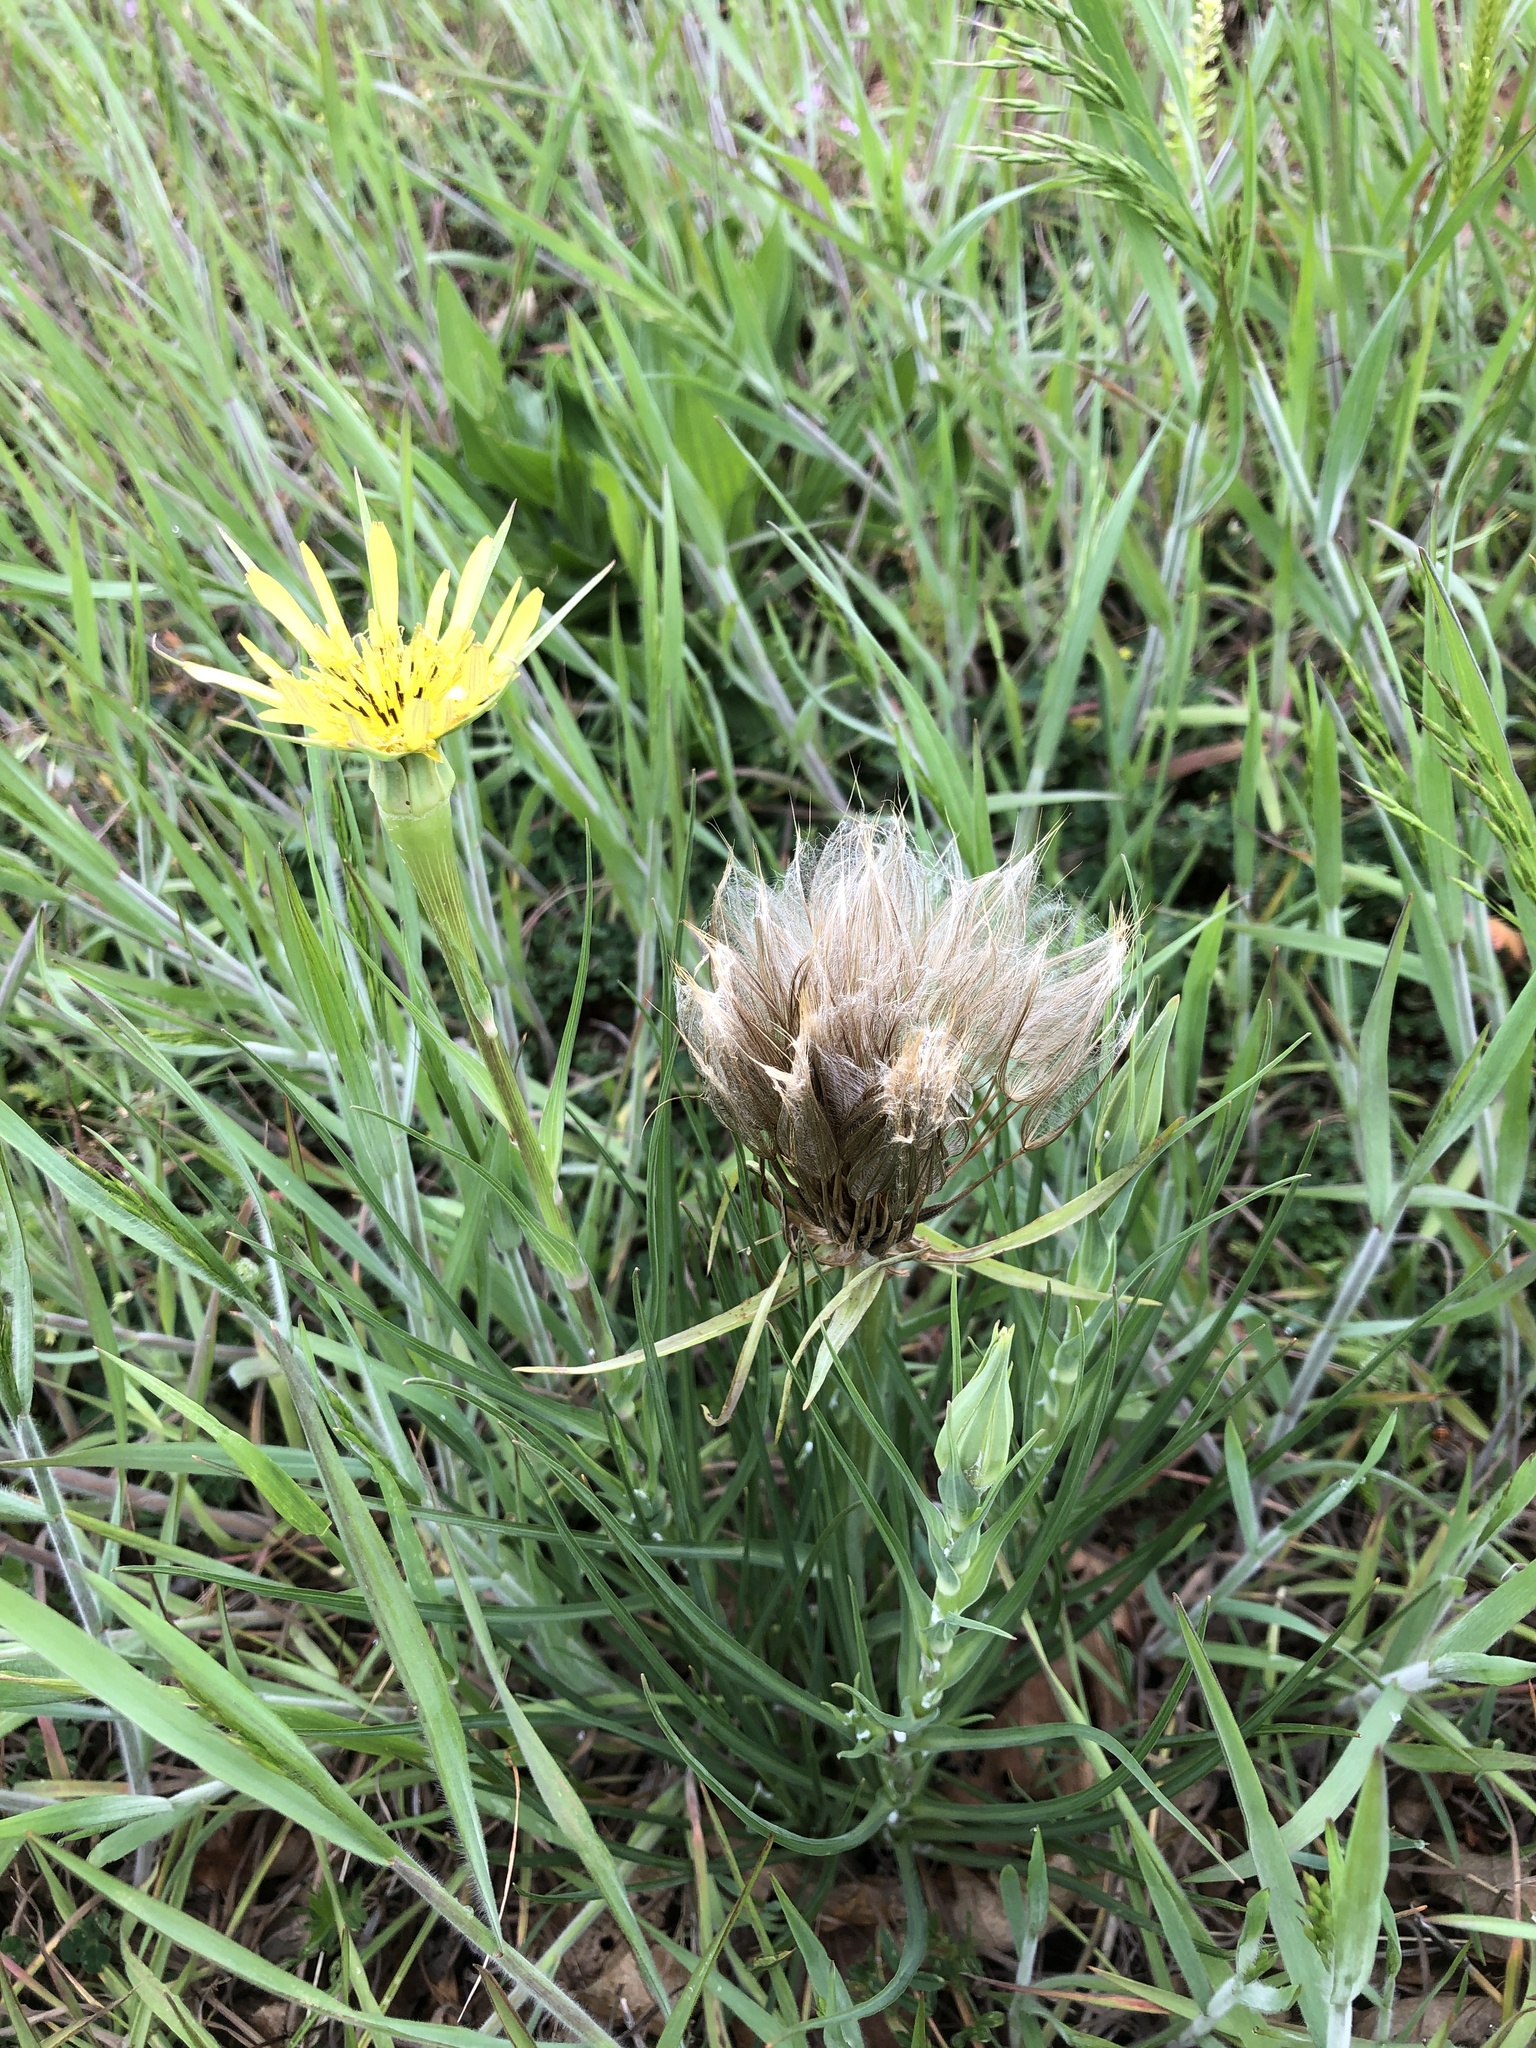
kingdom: Plantae
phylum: Tracheophyta
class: Magnoliopsida
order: Asterales
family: Asteraceae
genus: Tragopogon
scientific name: Tragopogon dubius
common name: Yellow salsify
